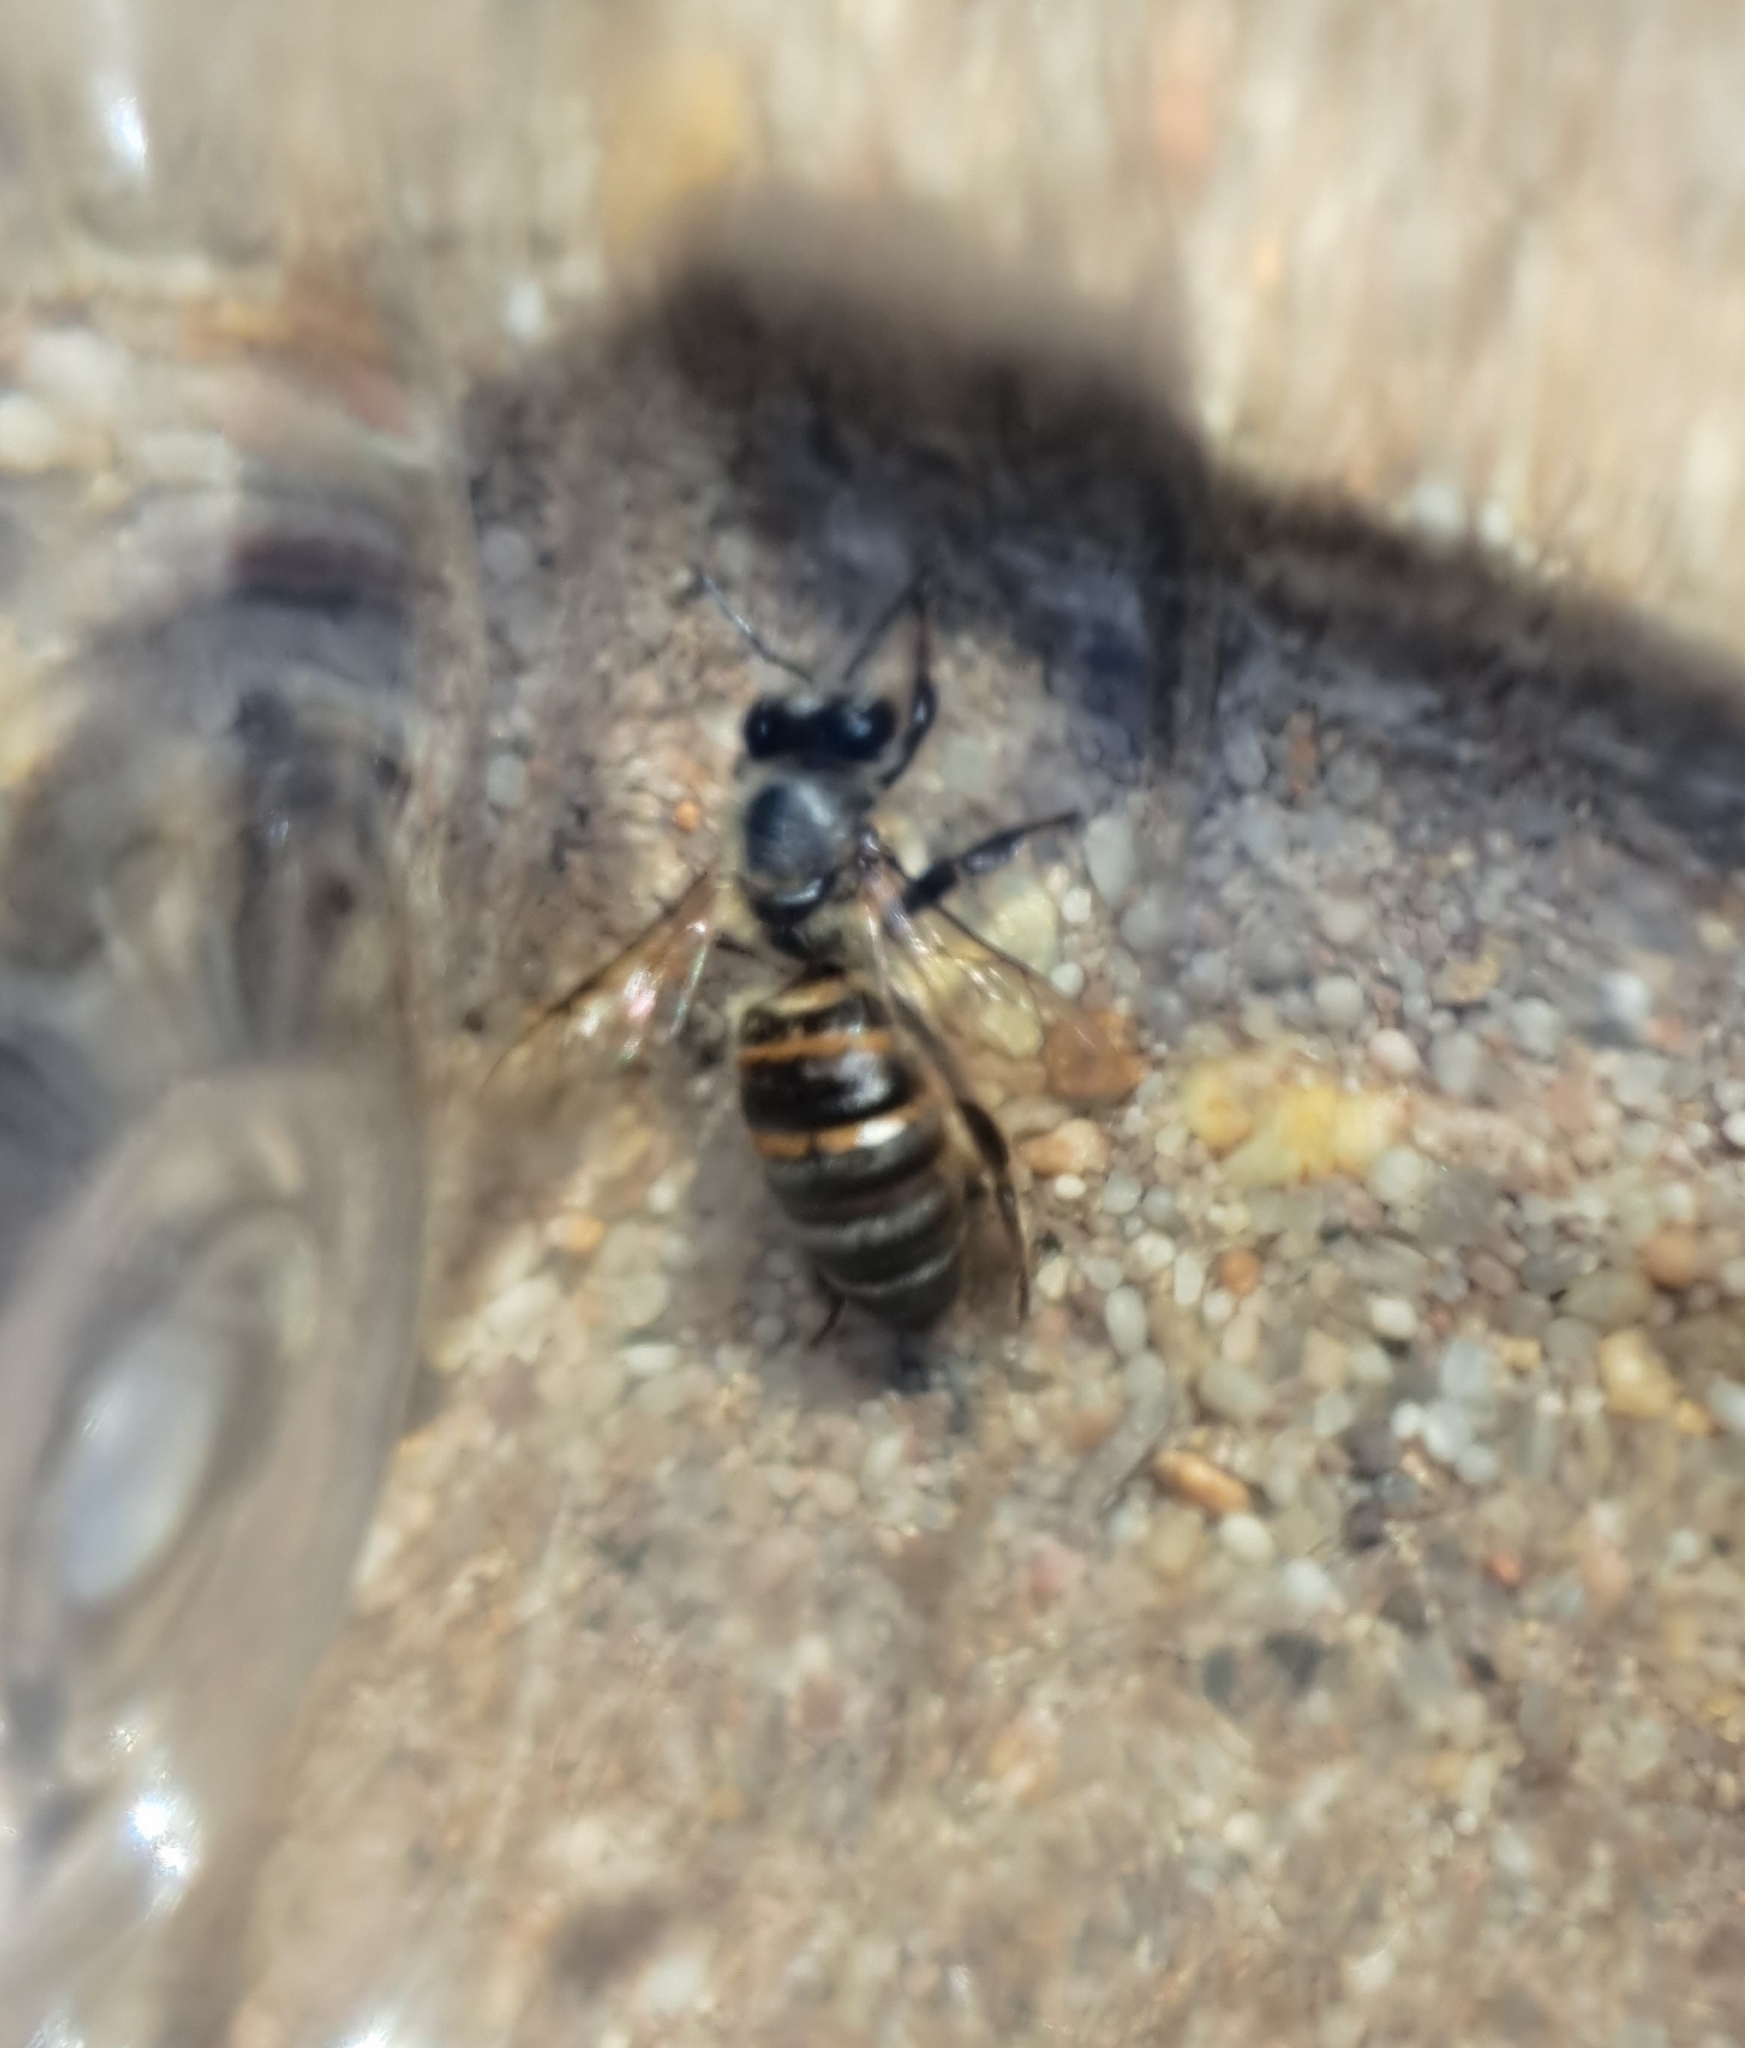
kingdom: Animalia
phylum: Arthropoda
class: Insecta
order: Hymenoptera
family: Apidae
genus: Apis
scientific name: Apis mellifera
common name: Honey bee
